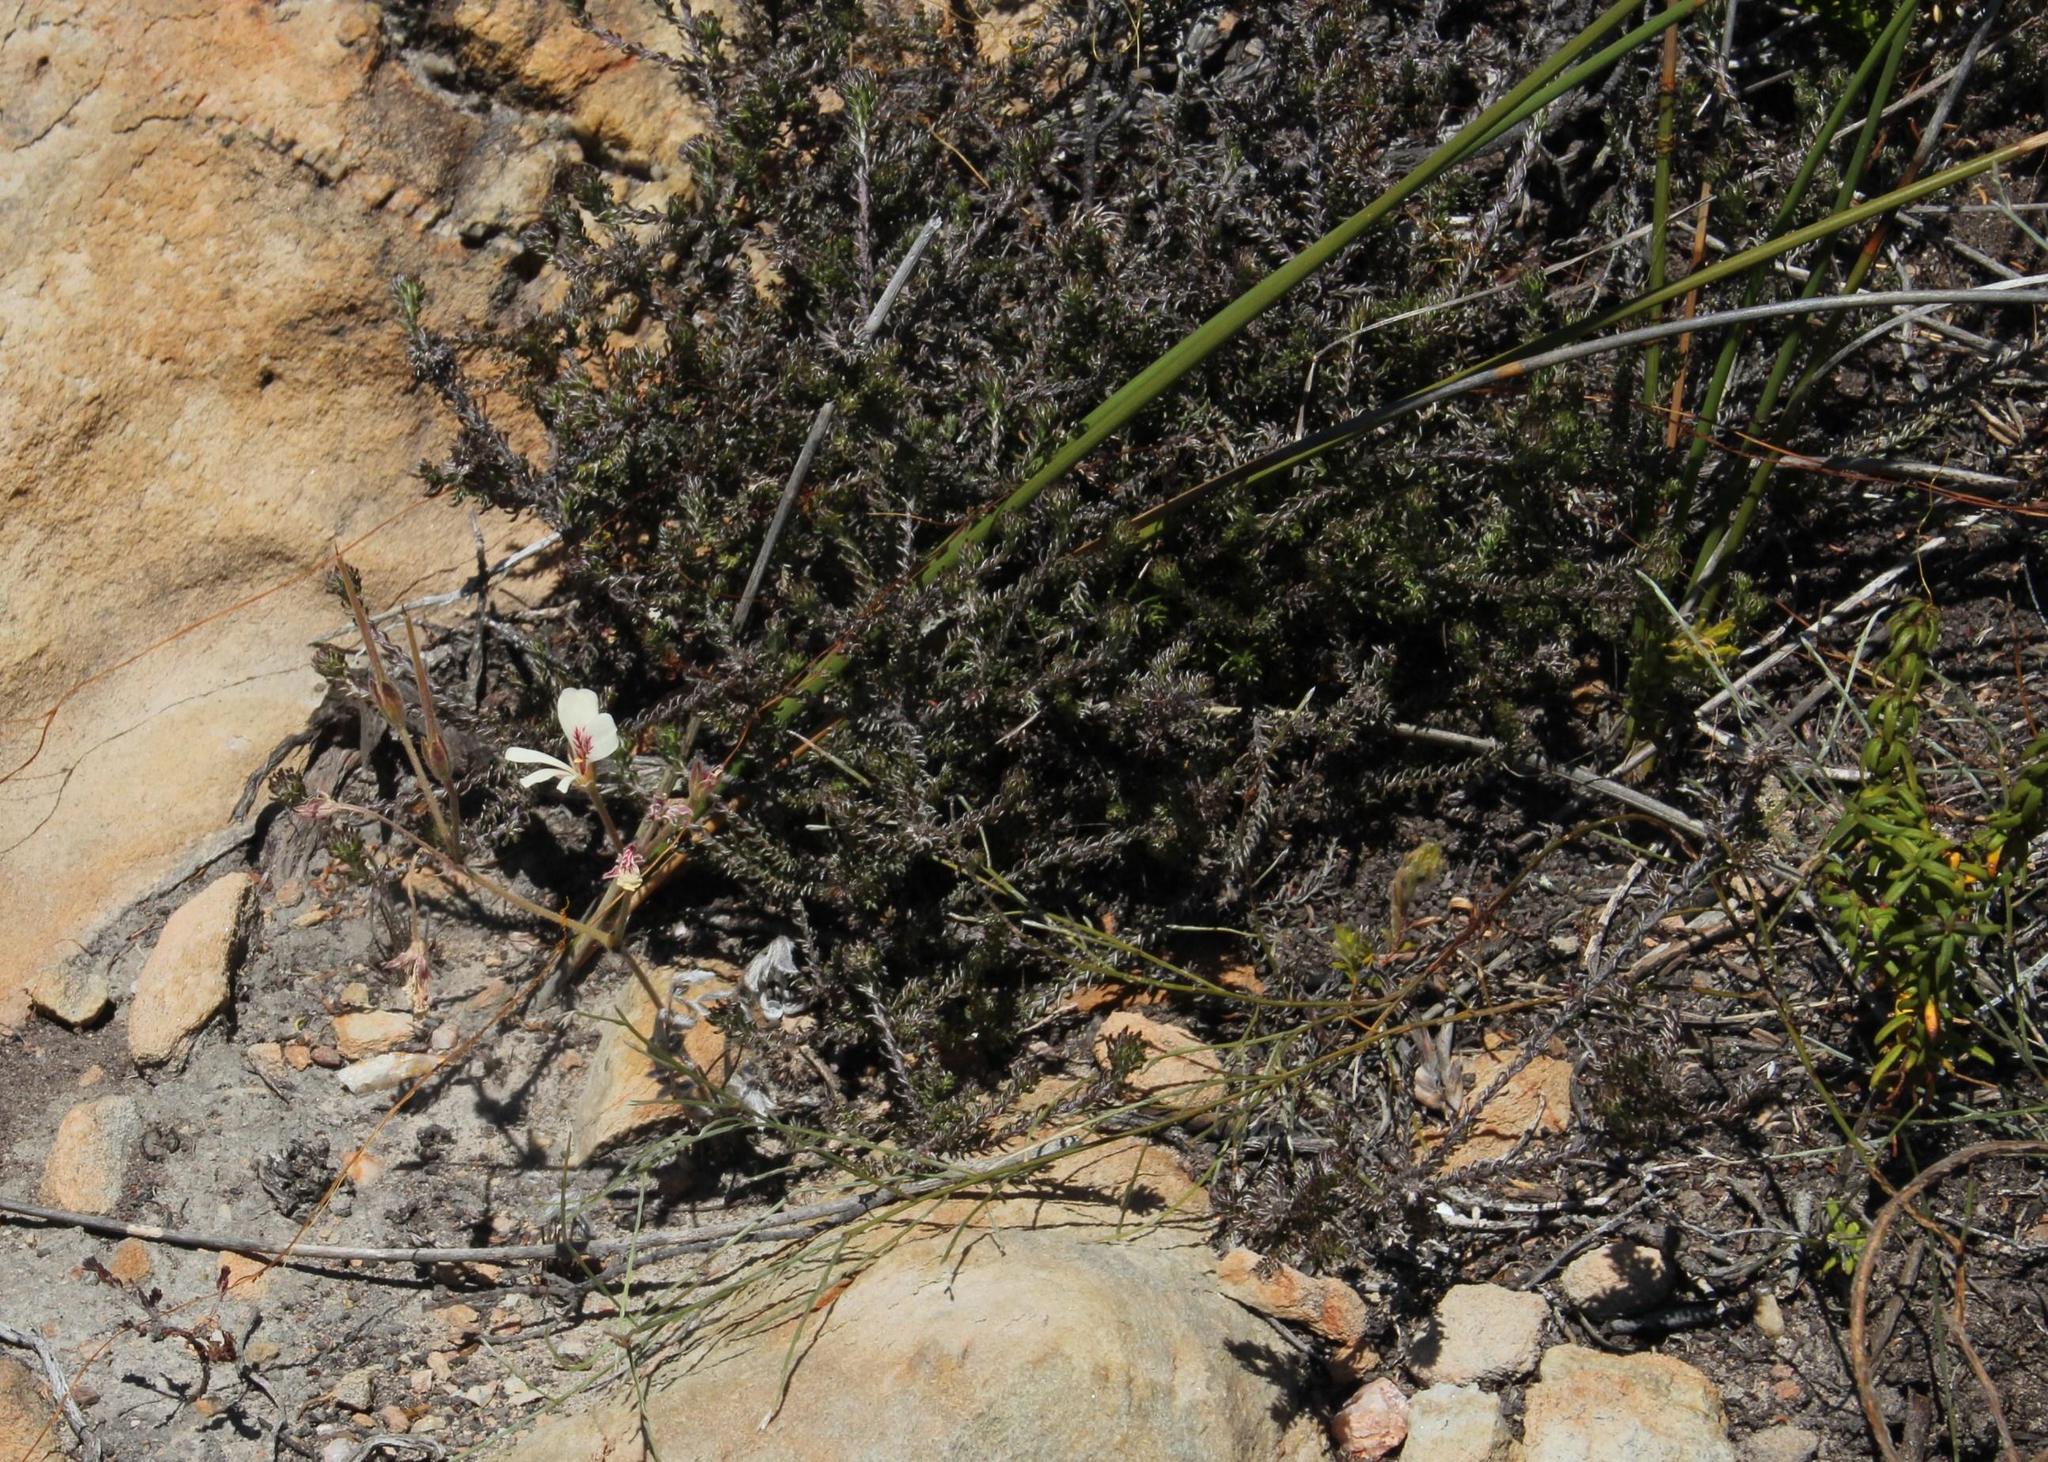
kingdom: Plantae
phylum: Tracheophyta
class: Magnoliopsida
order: Geraniales
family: Geraniaceae
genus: Pelargonium
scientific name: Pelargonium pinnatum
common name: Pinnated pelargonium
